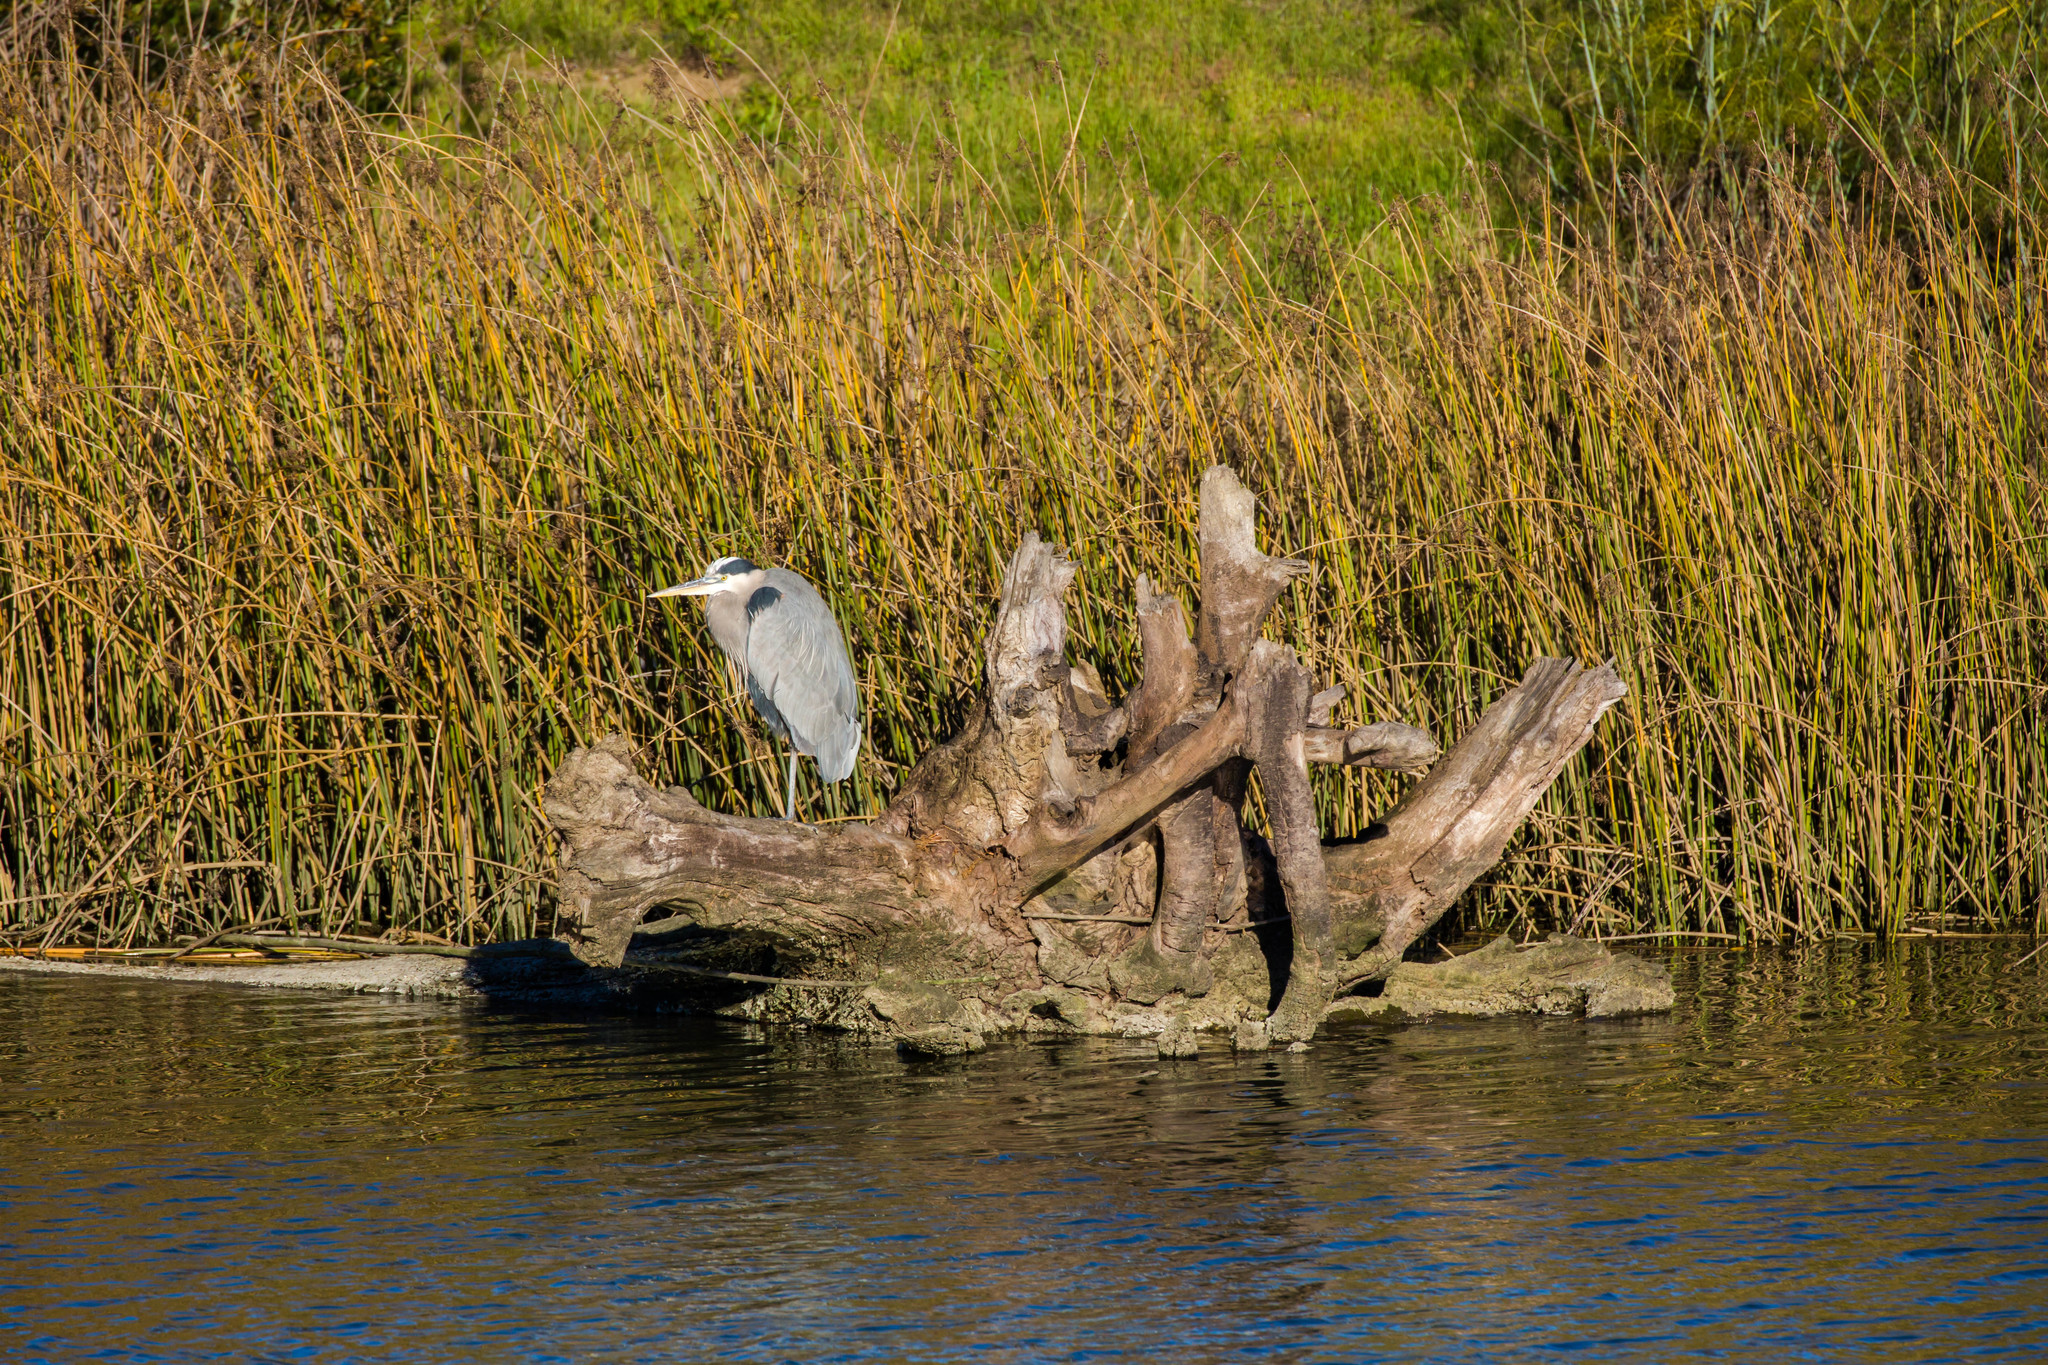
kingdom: Animalia
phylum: Chordata
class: Aves
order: Pelecaniformes
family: Ardeidae
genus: Ardea
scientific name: Ardea herodias
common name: Great blue heron
